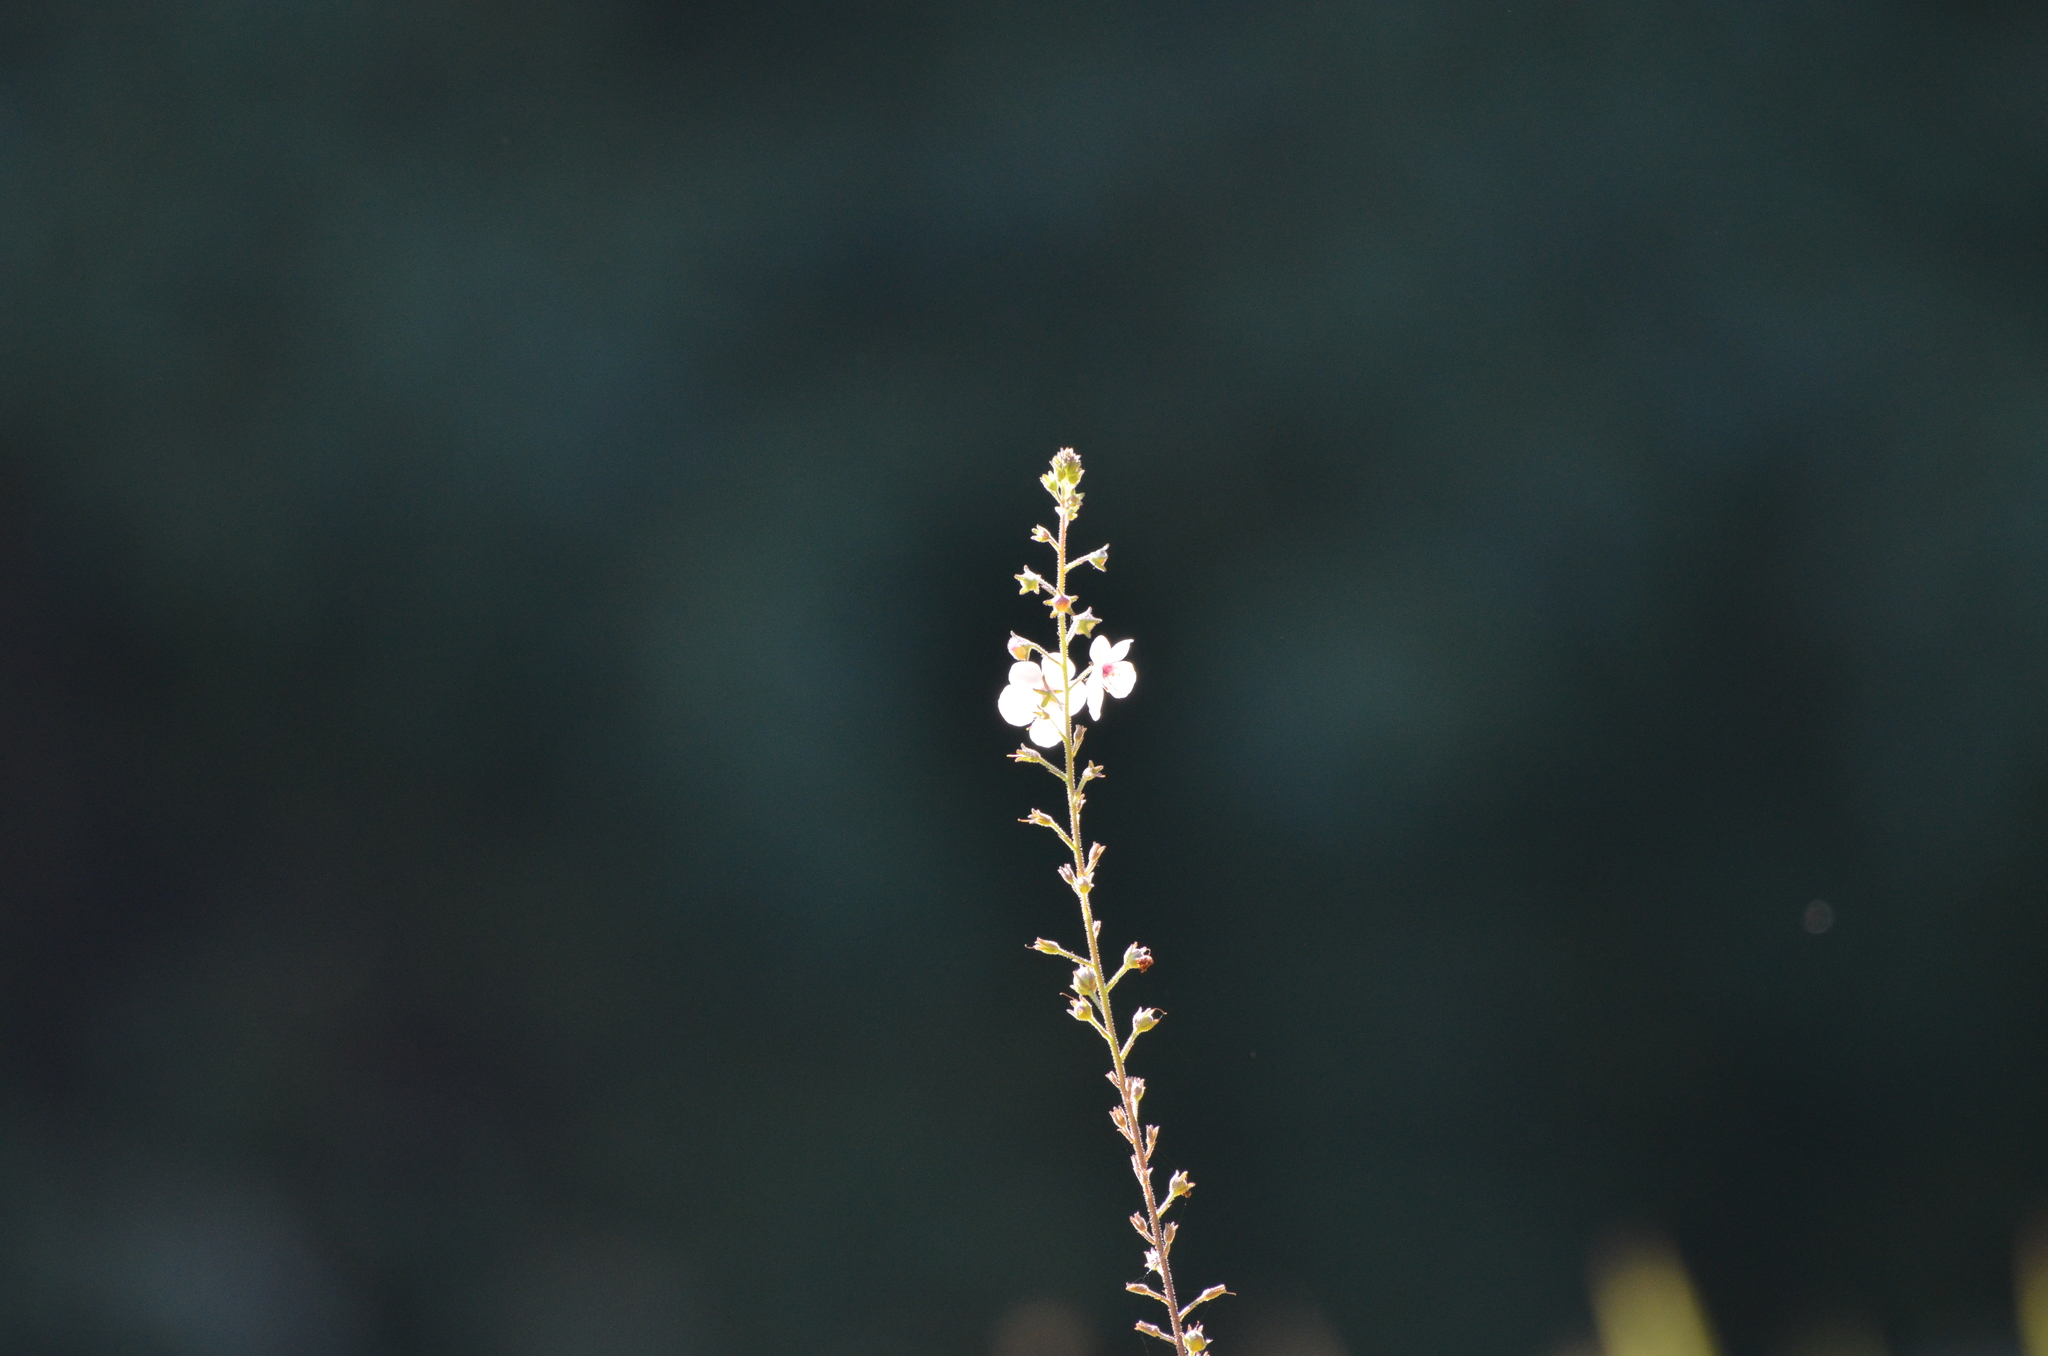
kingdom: Plantae
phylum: Tracheophyta
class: Magnoliopsida
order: Lamiales
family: Scrophulariaceae
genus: Verbascum
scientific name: Verbascum blattaria
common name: Moth mullein
